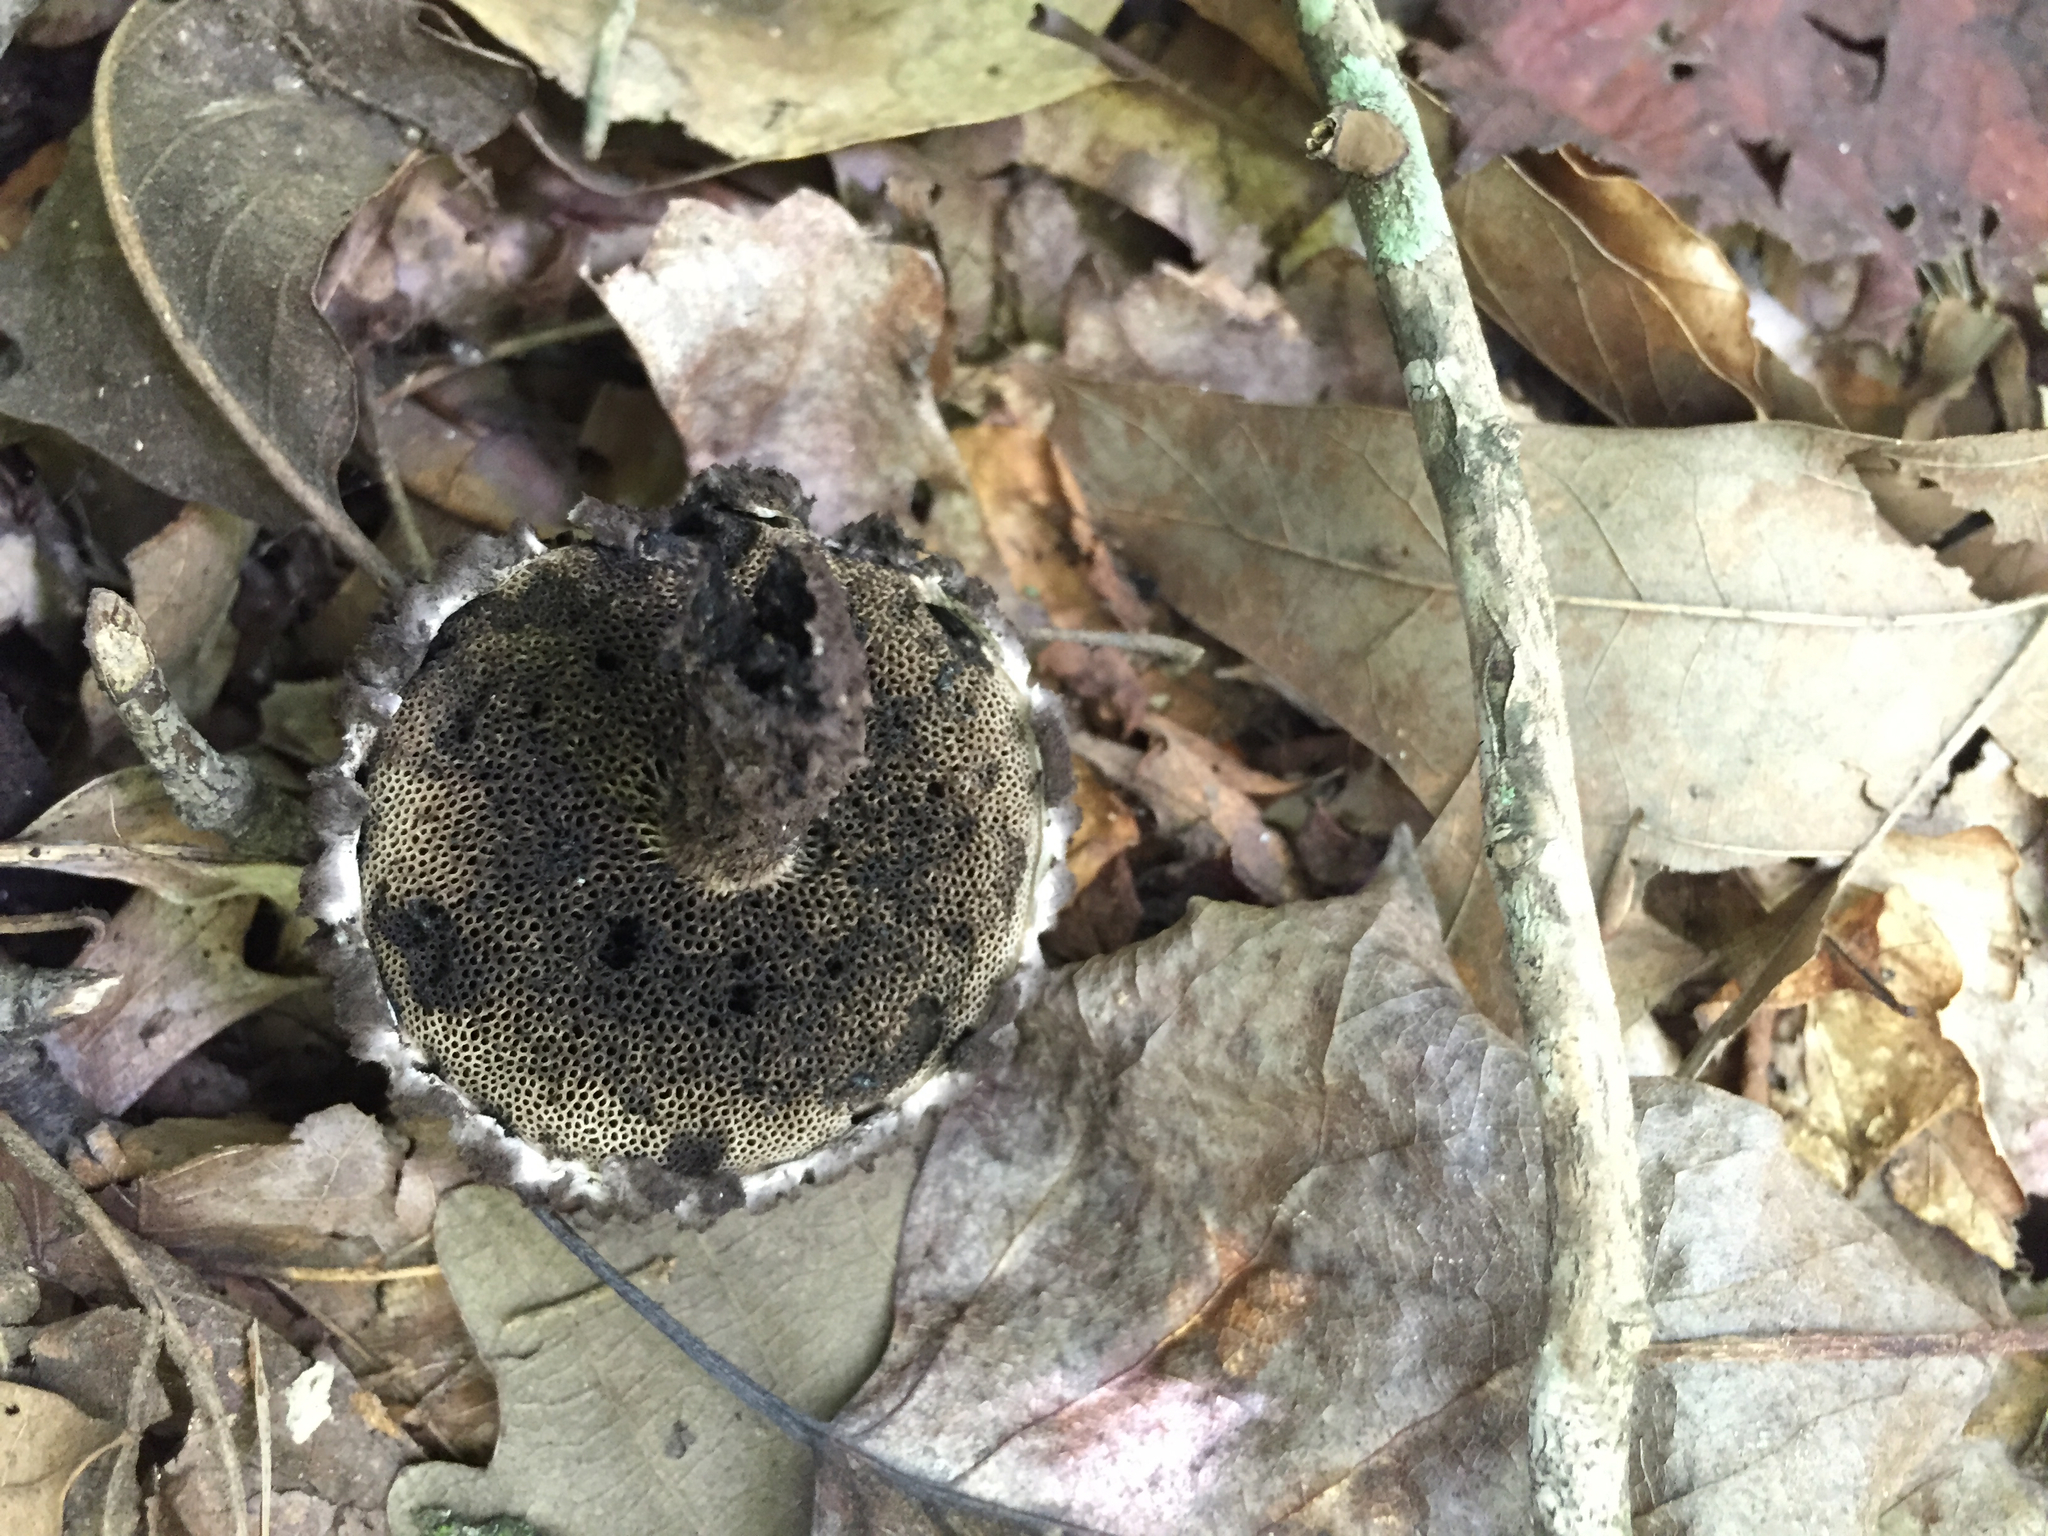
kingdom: Fungi
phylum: Basidiomycota
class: Agaricomycetes
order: Boletales
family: Boletaceae
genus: Strobilomyces
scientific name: Strobilomyces strobilaceus
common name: Old man of the woods
